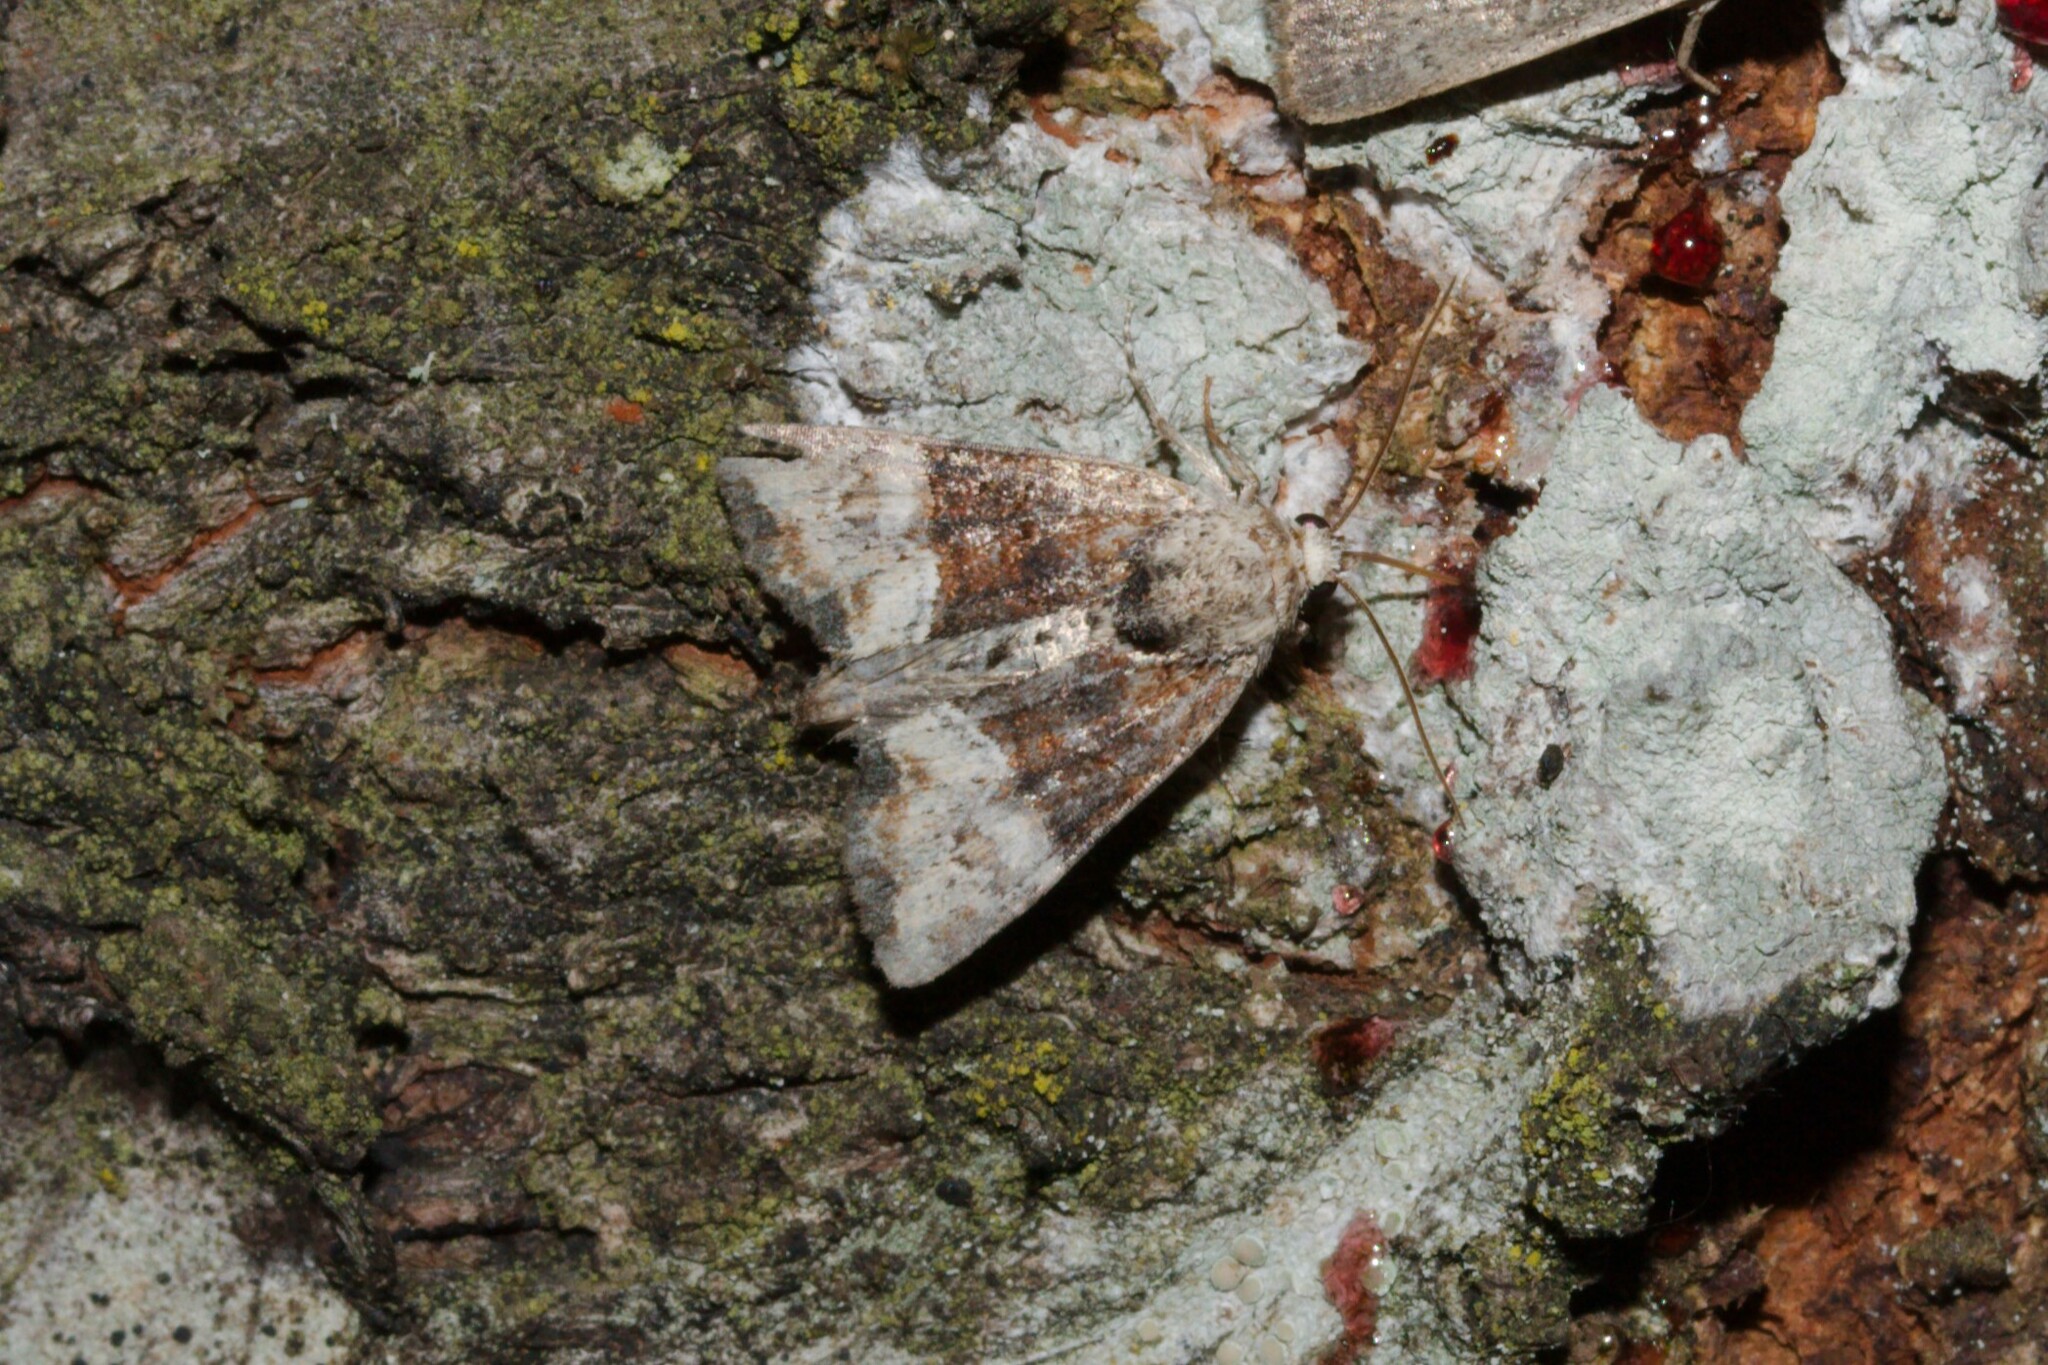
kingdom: Animalia
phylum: Arthropoda
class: Insecta
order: Lepidoptera
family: Noctuidae
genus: Mesoligia
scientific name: Mesoligia furuncula
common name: Cloaked minor
